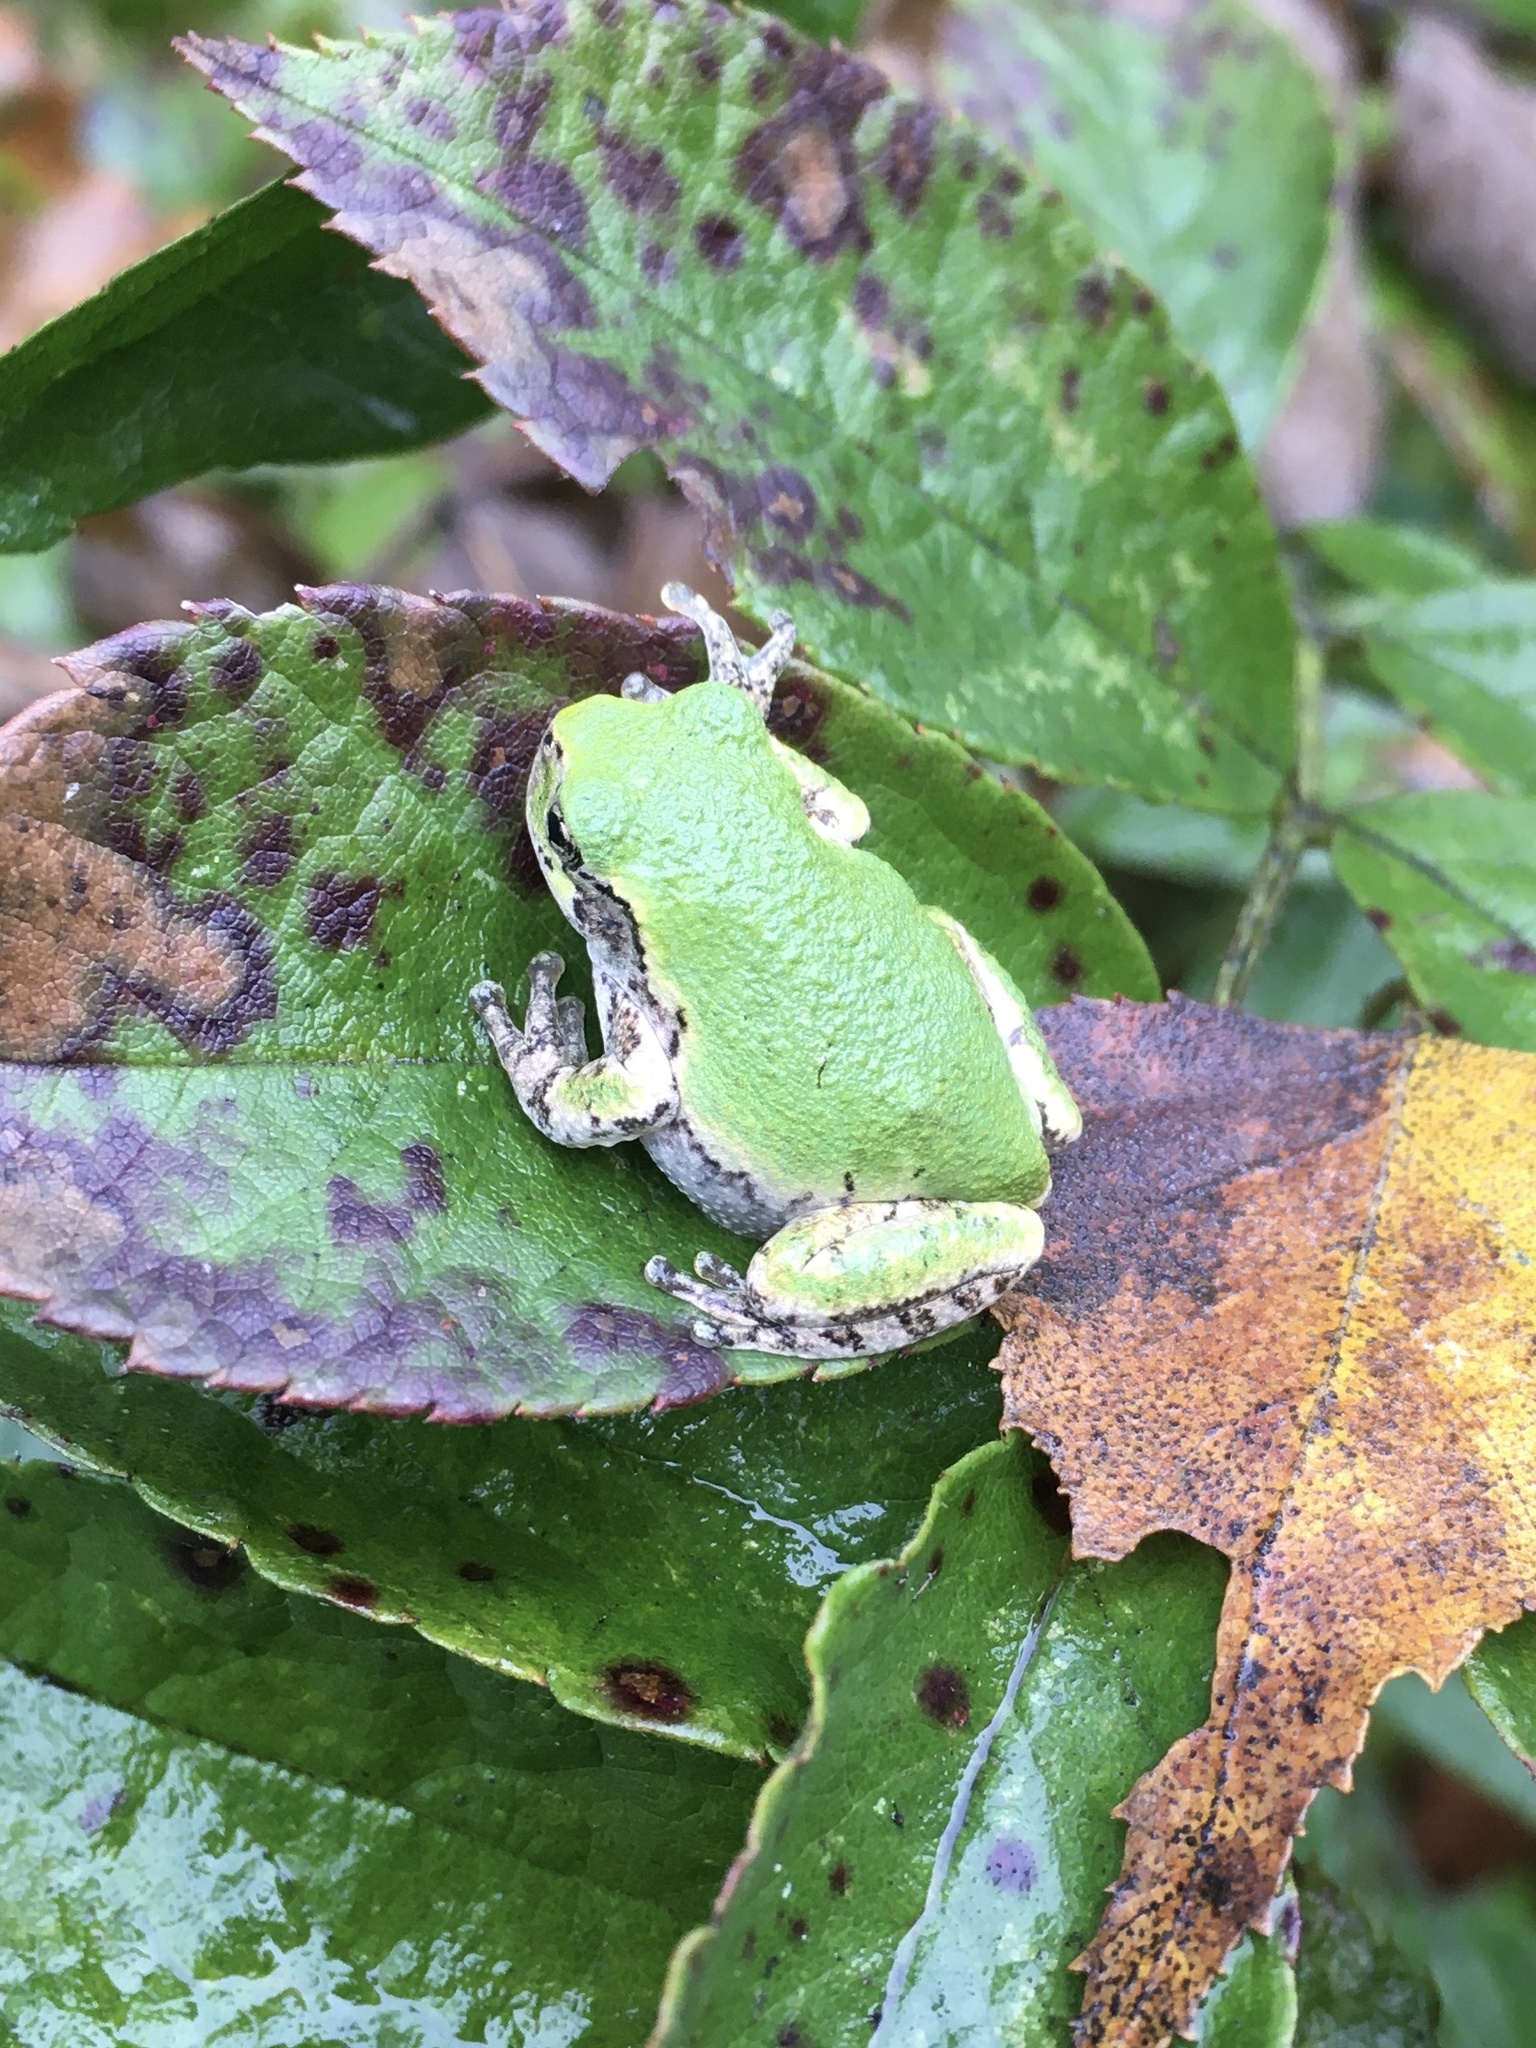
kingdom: Animalia
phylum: Chordata
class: Amphibia
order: Anura
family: Hylidae
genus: Dryophytes
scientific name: Dryophytes versicolor
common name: Gray treefrog
